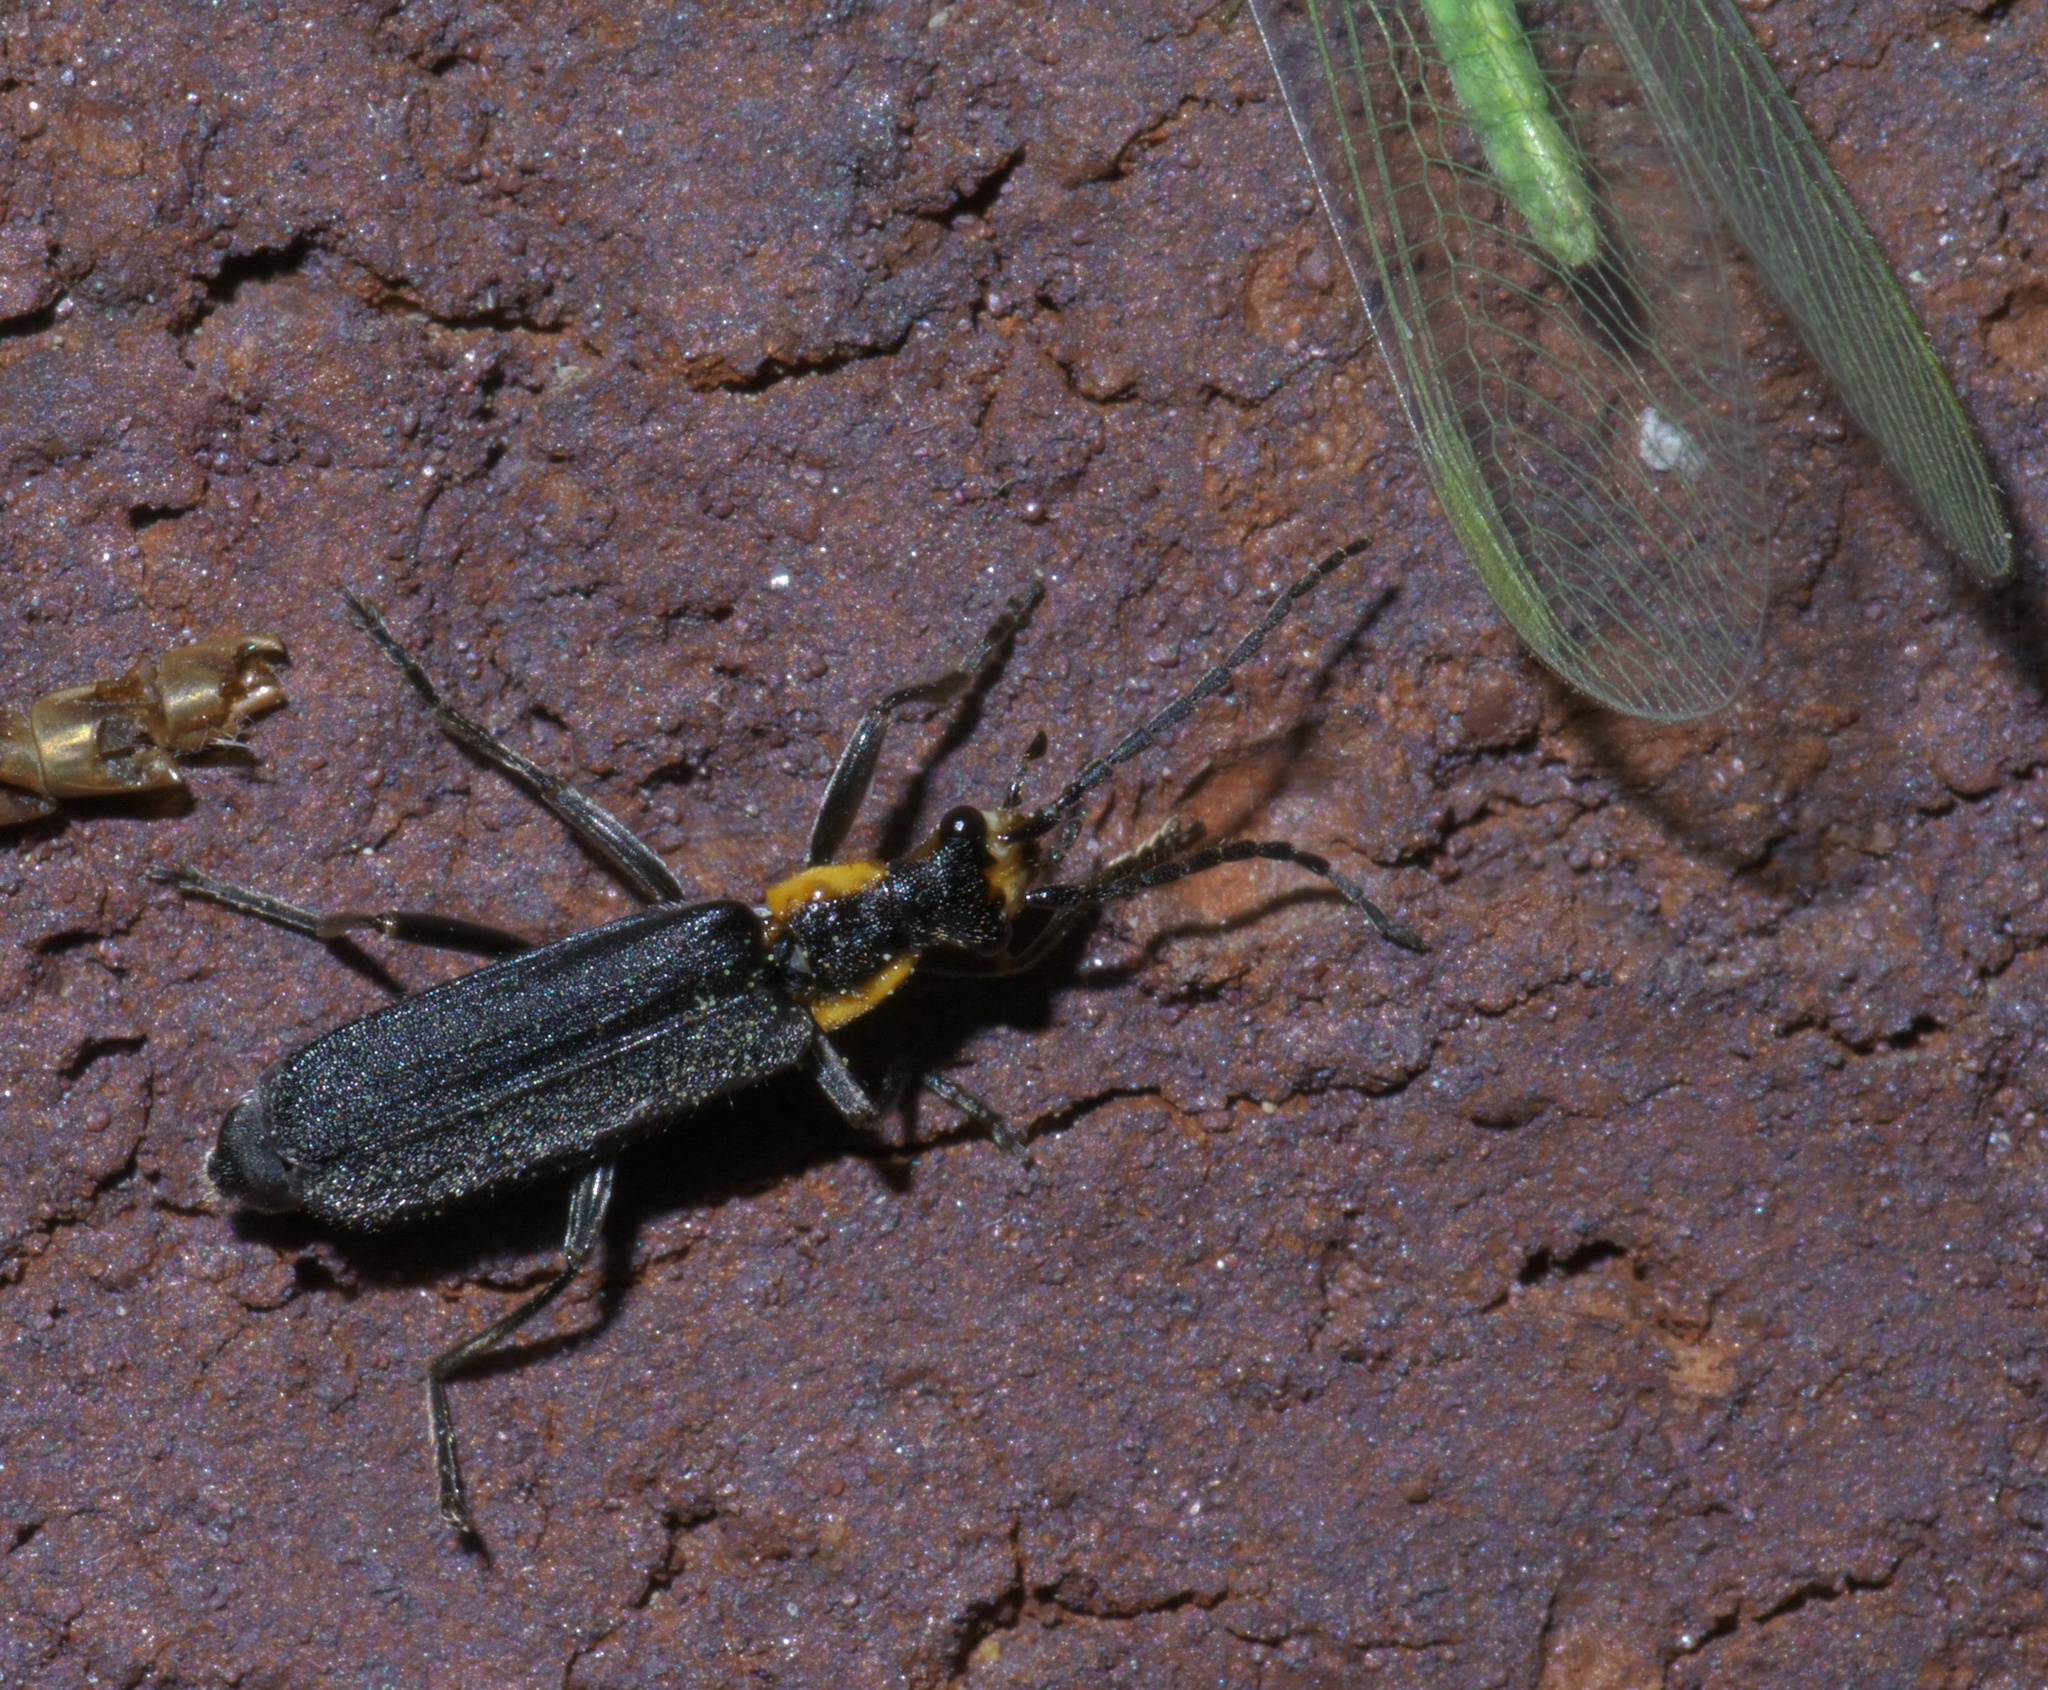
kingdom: Animalia
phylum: Arthropoda
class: Insecta
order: Coleoptera
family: Cantharidae
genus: Podabrus
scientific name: Podabrus rugosulus
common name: Wrinkled soldier beetle
